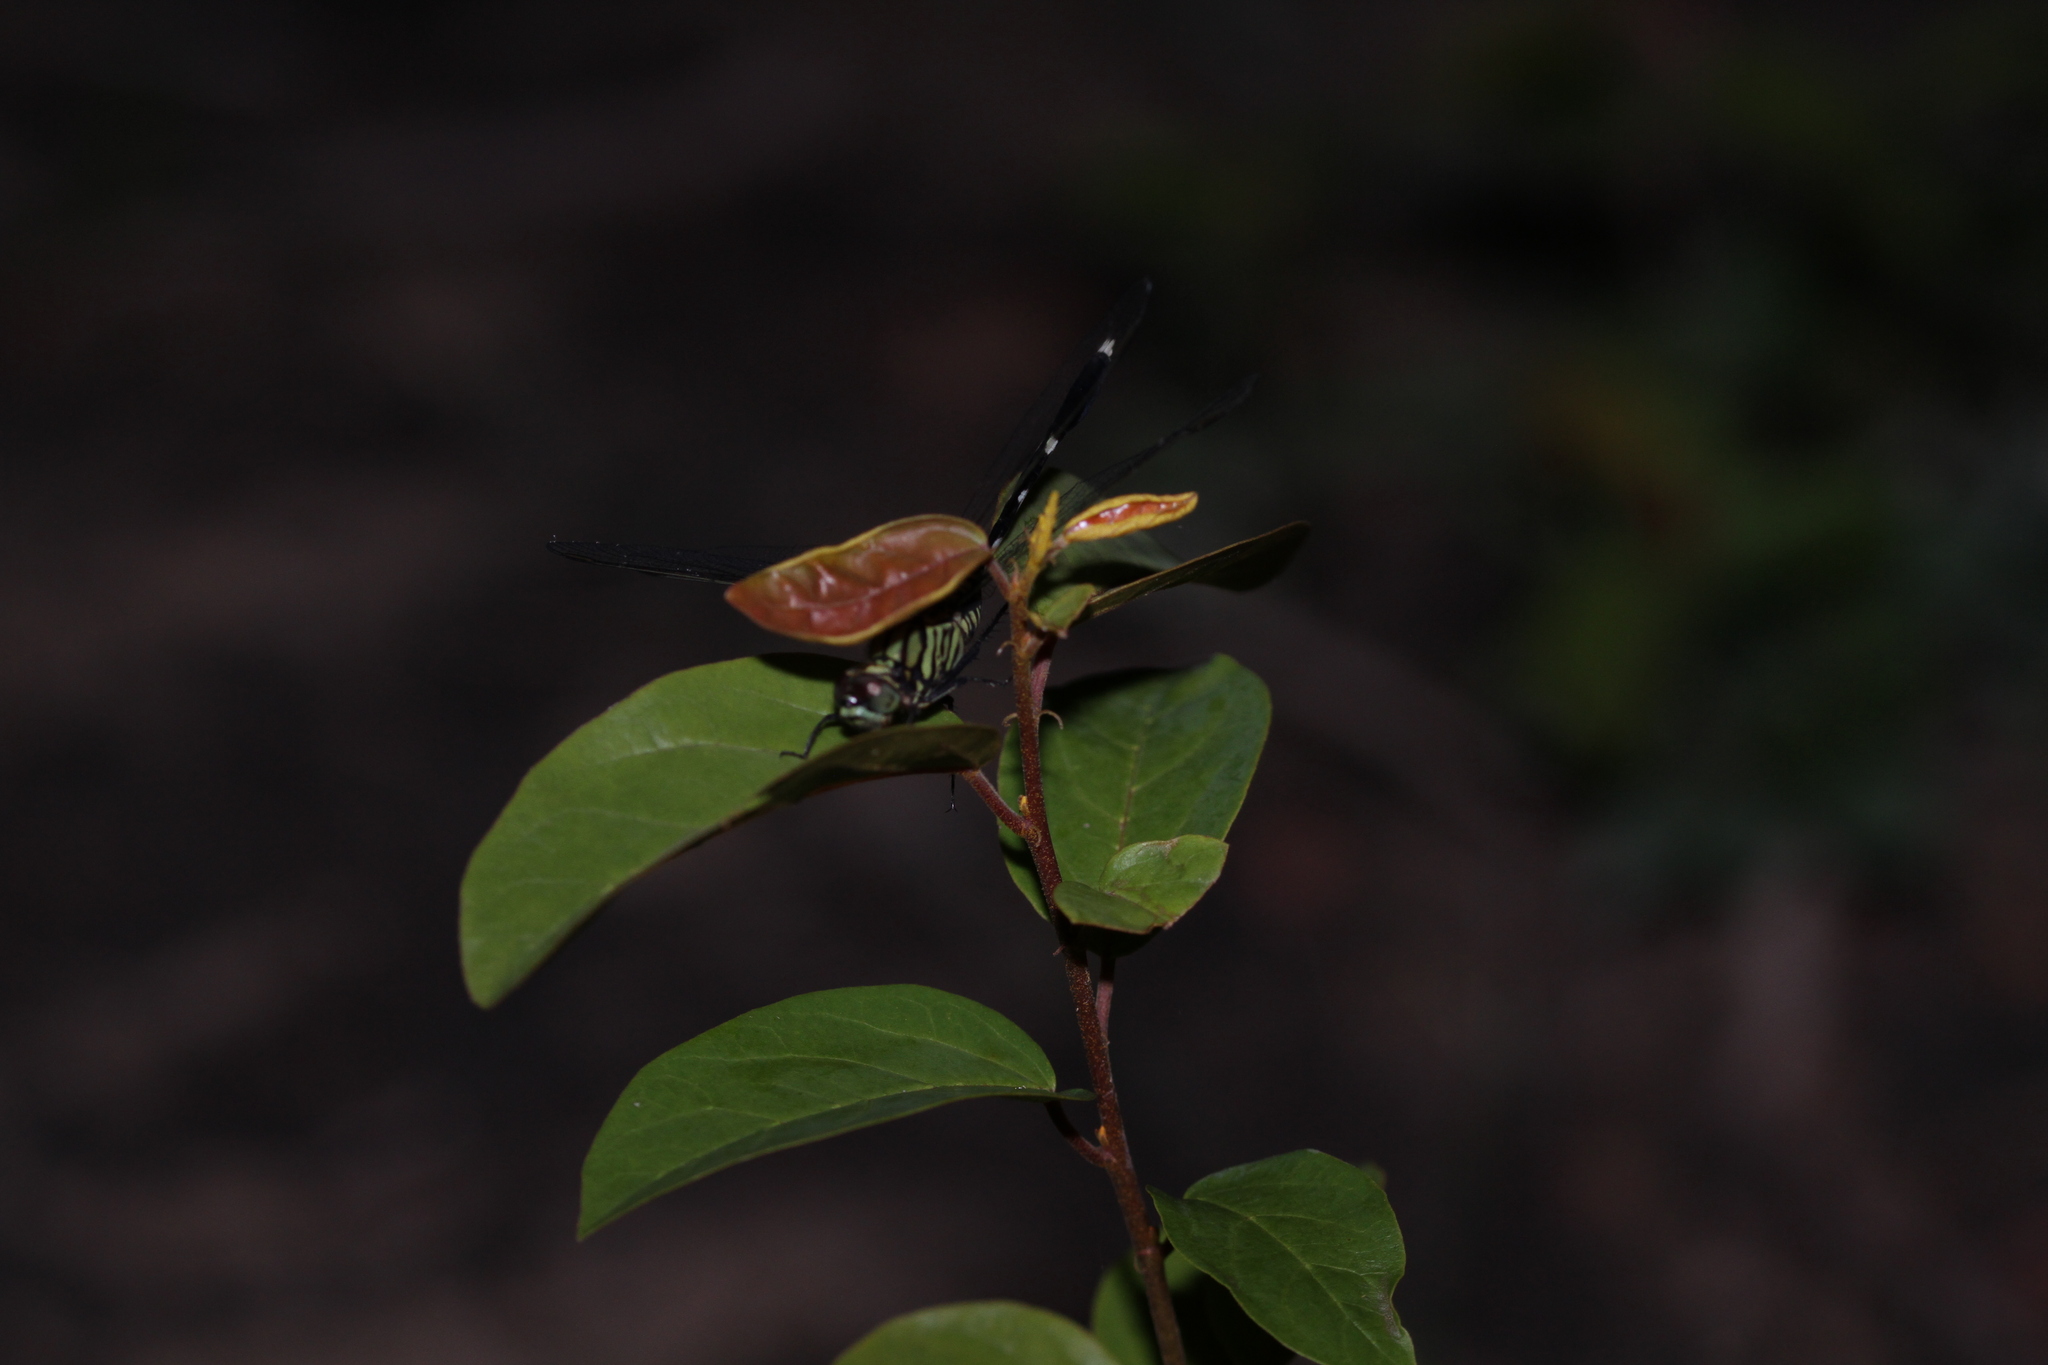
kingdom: Animalia
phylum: Arthropoda
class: Insecta
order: Odonata
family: Libellulidae
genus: Orthetrum
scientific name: Orthetrum sabina
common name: Slender skimmer
